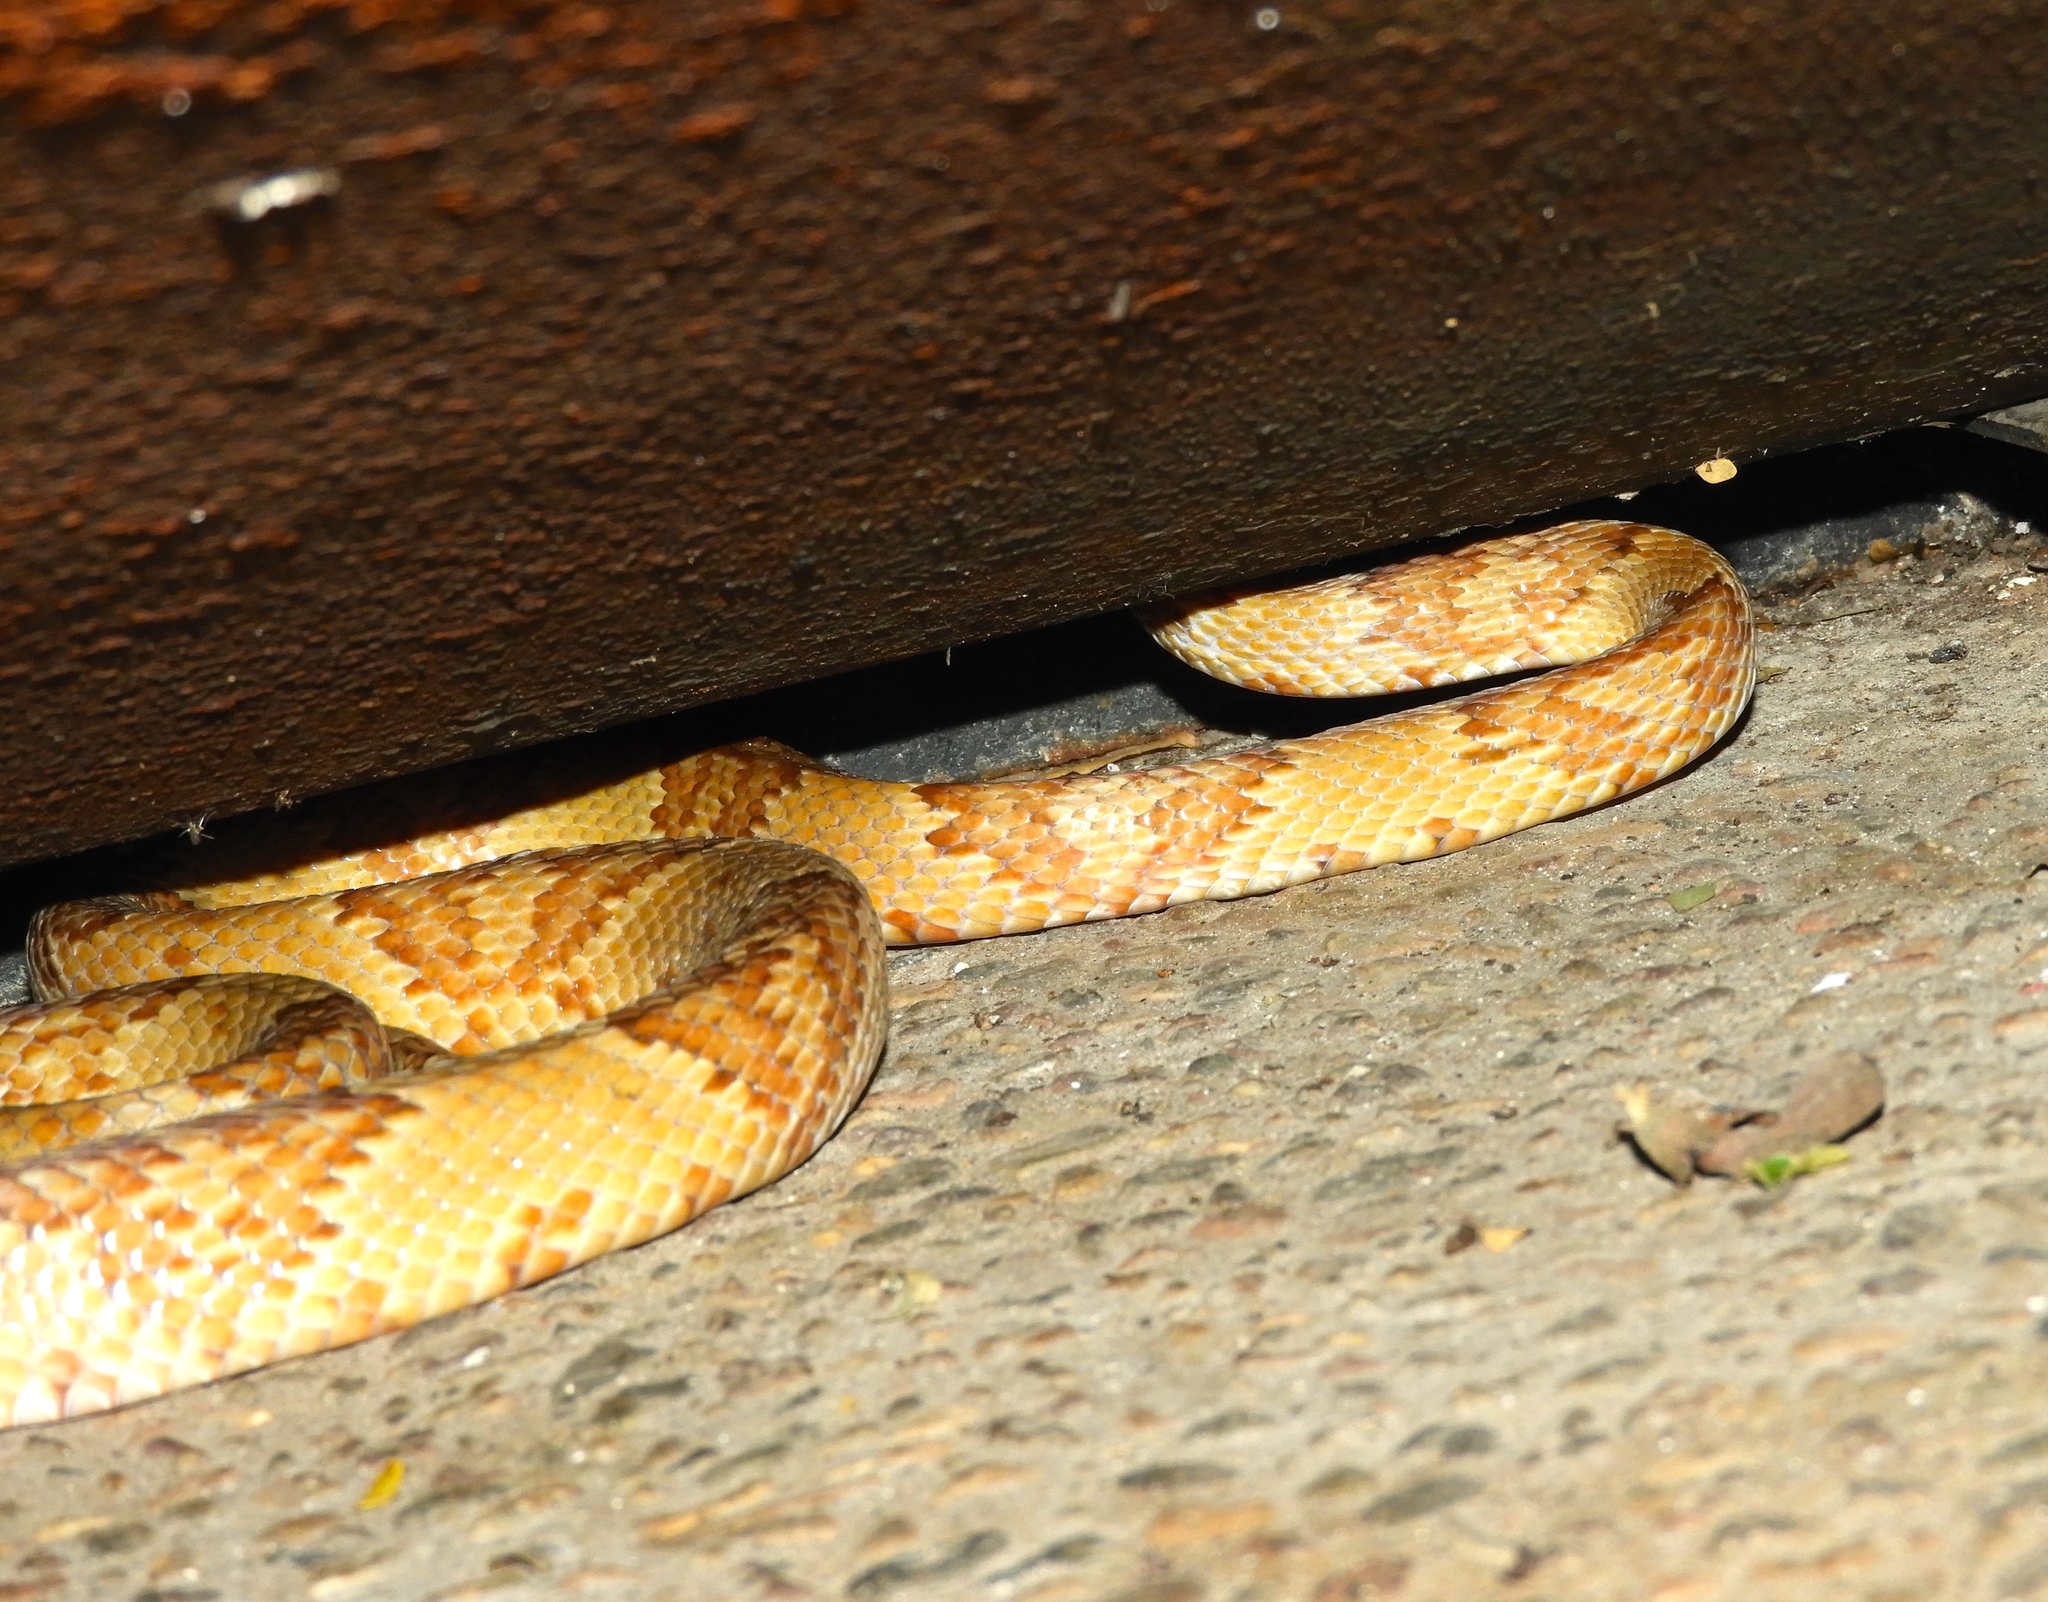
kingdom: Animalia
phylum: Chordata
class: Squamata
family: Colubridae
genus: Trimorphodon
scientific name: Trimorphodon paucimaculatus
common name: Sinaloan lyresnake
